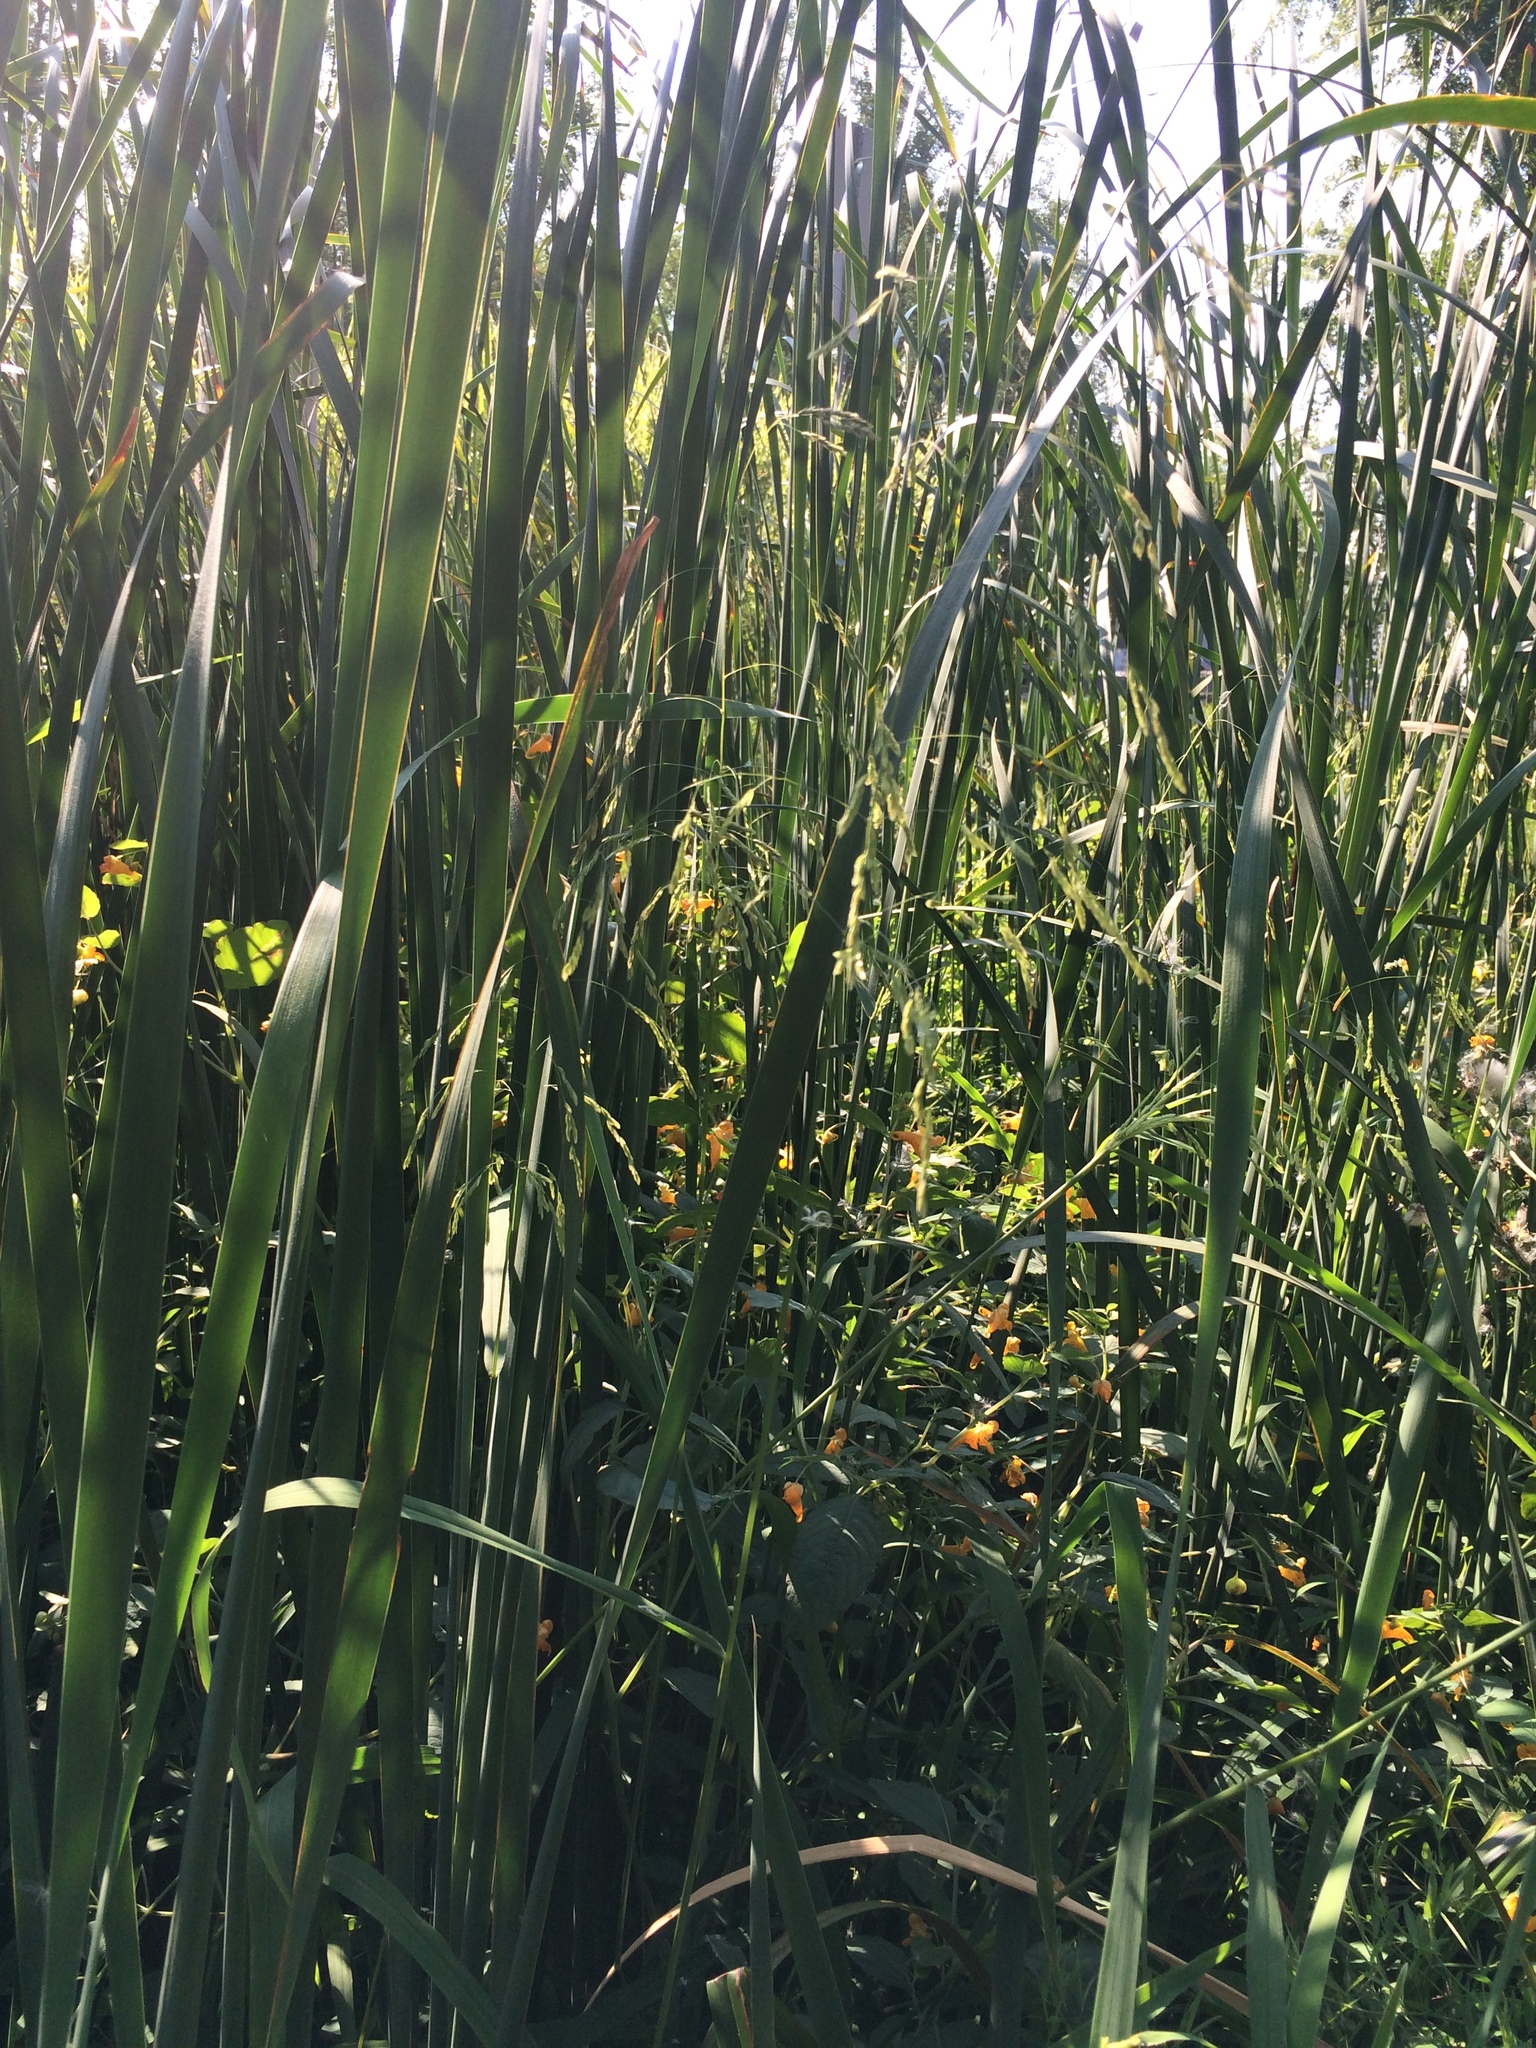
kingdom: Plantae
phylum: Tracheophyta
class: Magnoliopsida
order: Ericales
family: Balsaminaceae
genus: Impatiens
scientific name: Impatiens capensis
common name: Orange balsam
